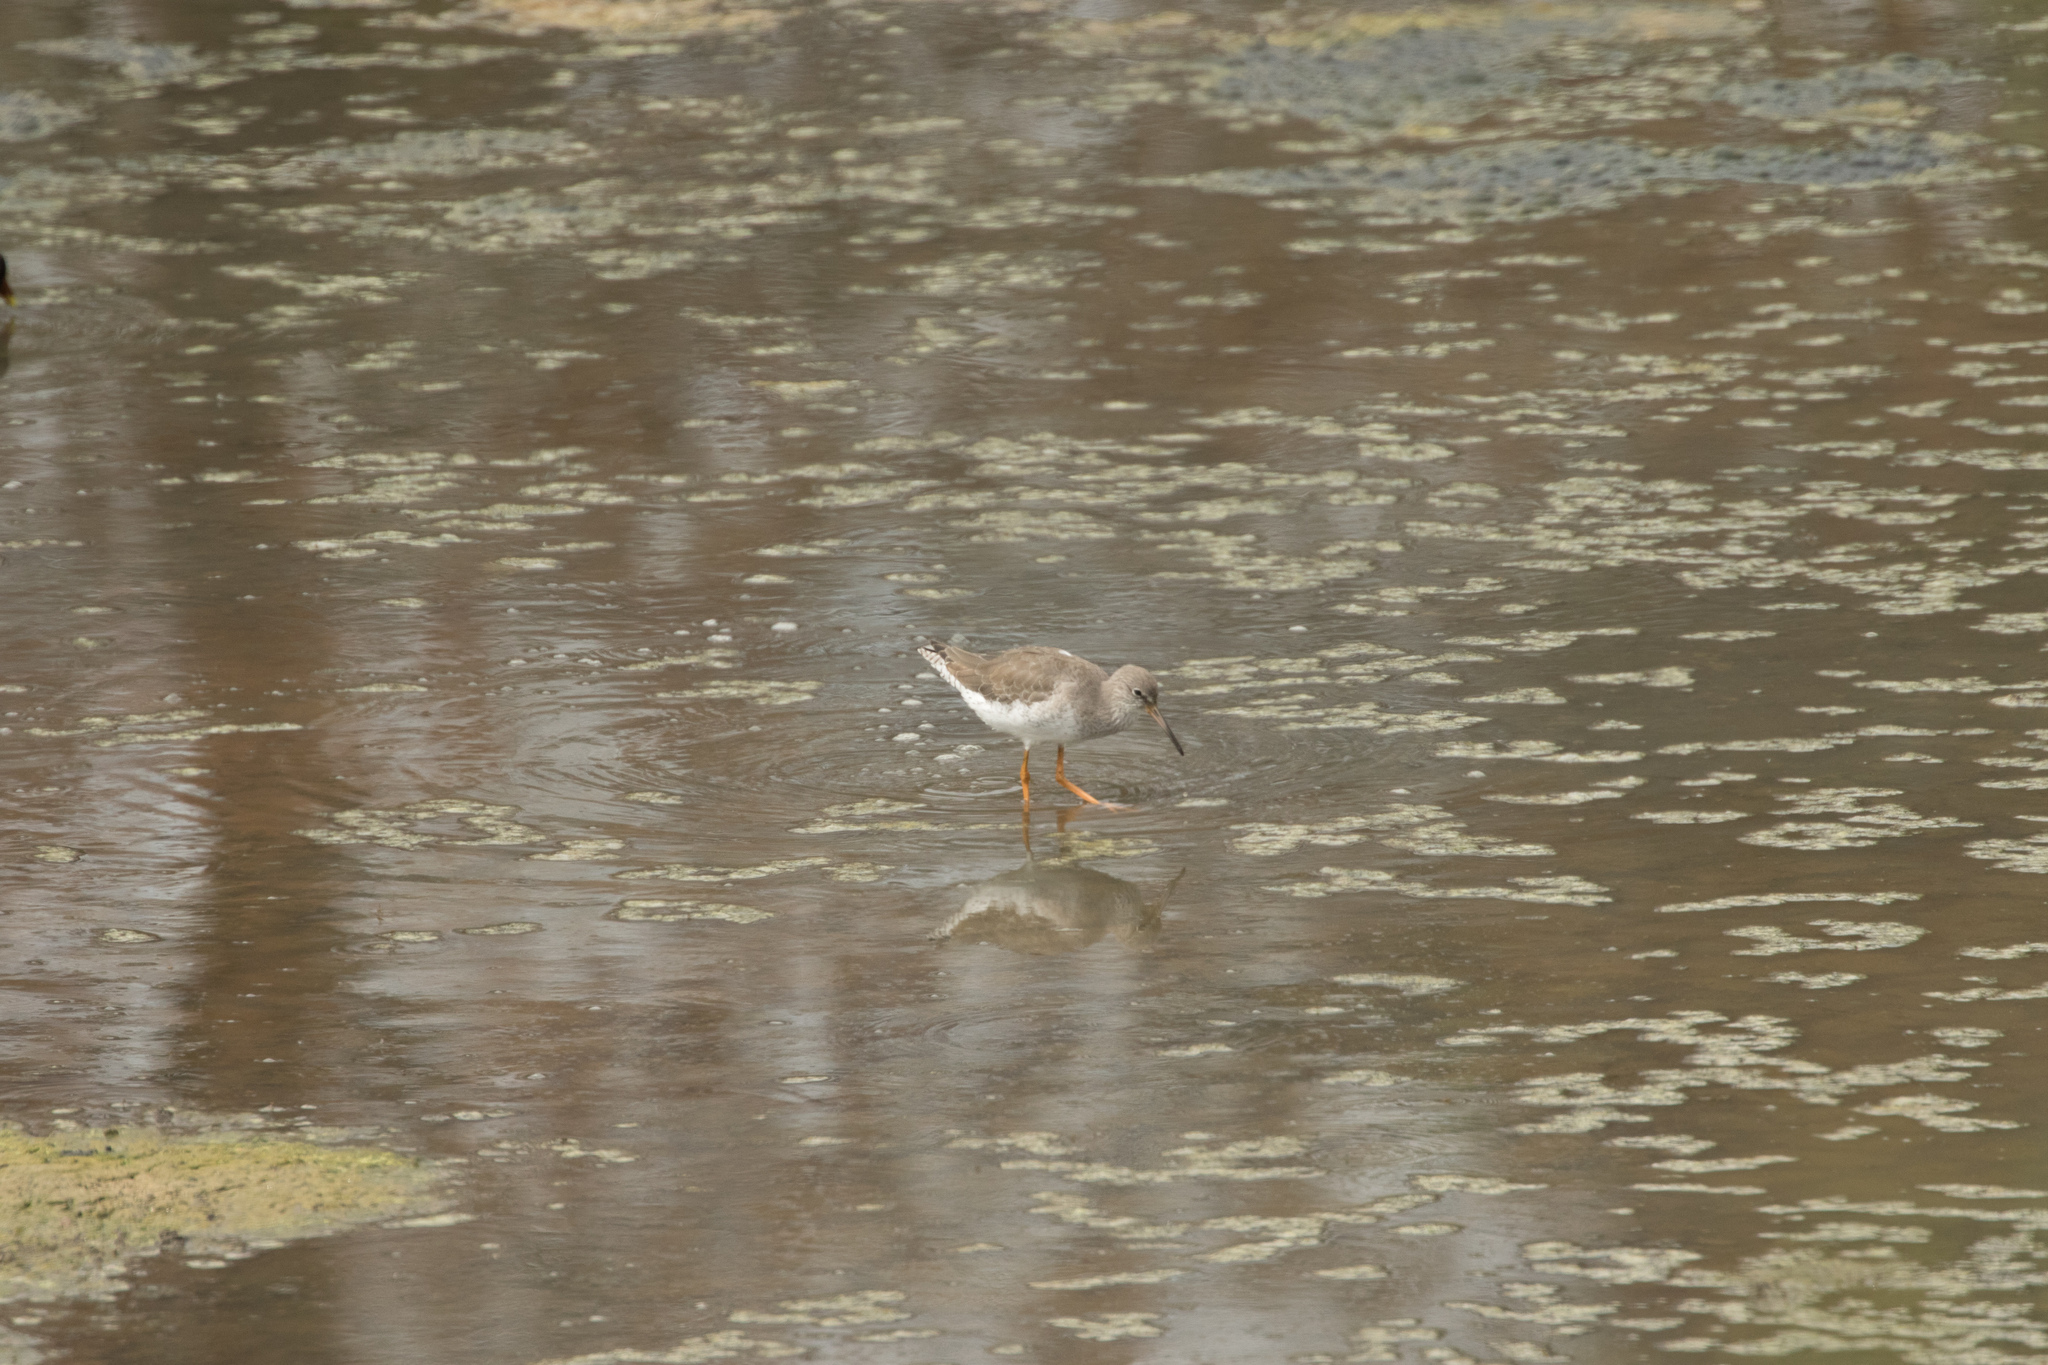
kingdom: Animalia
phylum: Chordata
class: Aves
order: Charadriiformes
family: Scolopacidae
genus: Tringa
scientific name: Tringa totanus
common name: Common redshank
